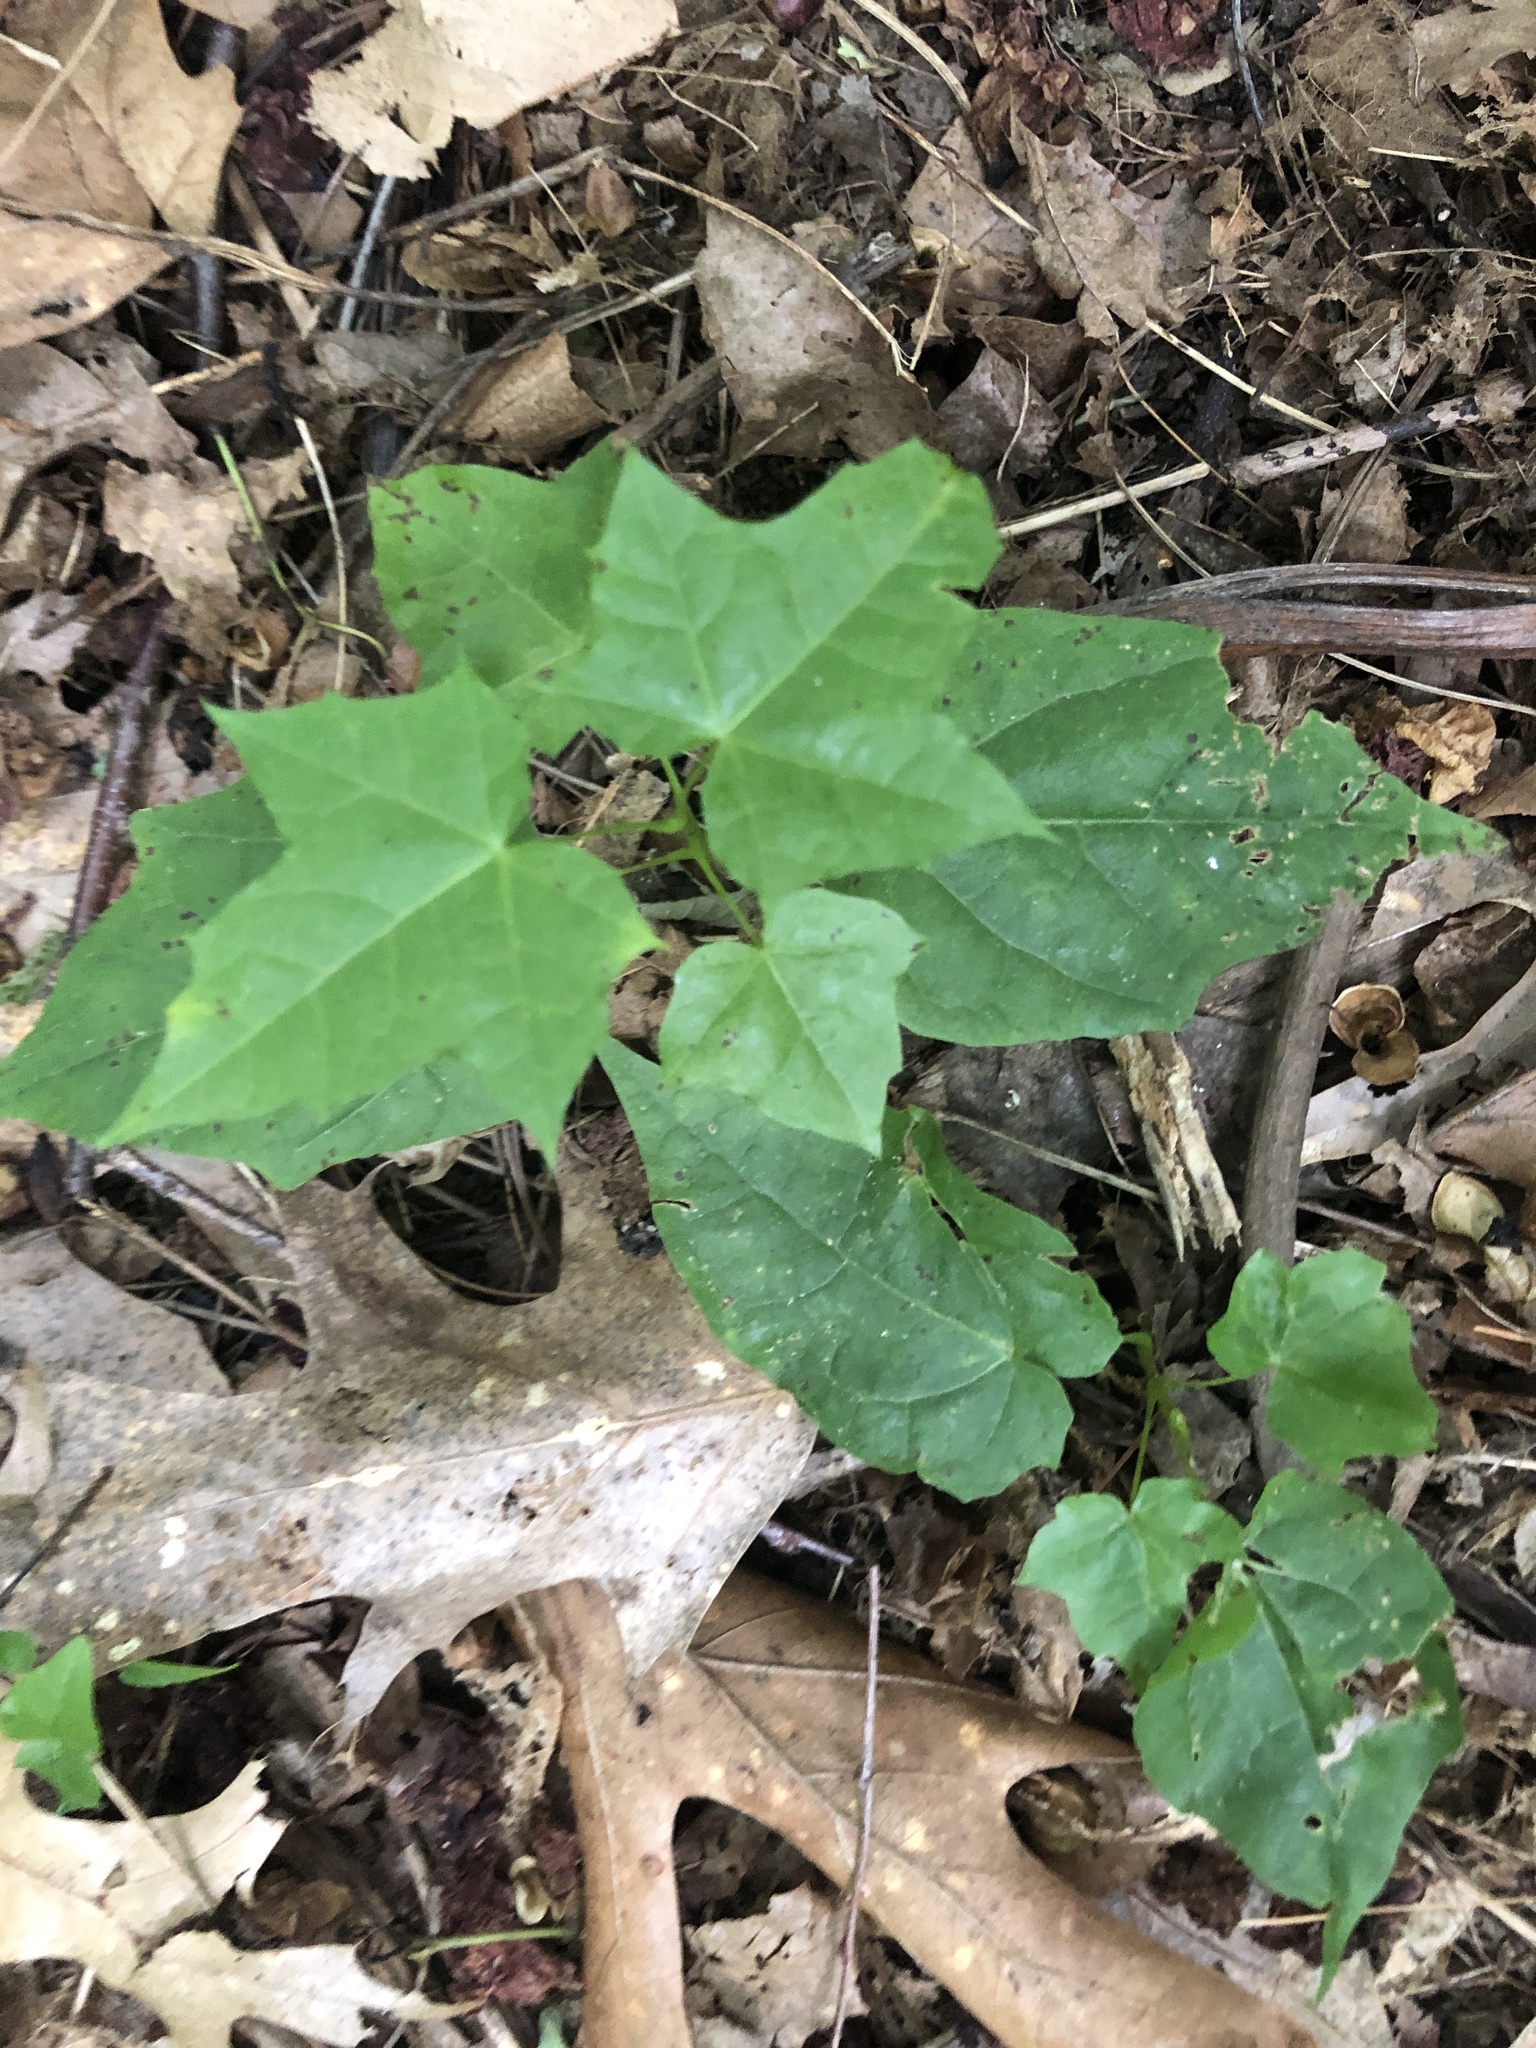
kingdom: Plantae
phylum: Tracheophyta
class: Magnoliopsida
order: Sapindales
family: Sapindaceae
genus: Acer
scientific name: Acer rubrum
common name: Red maple
